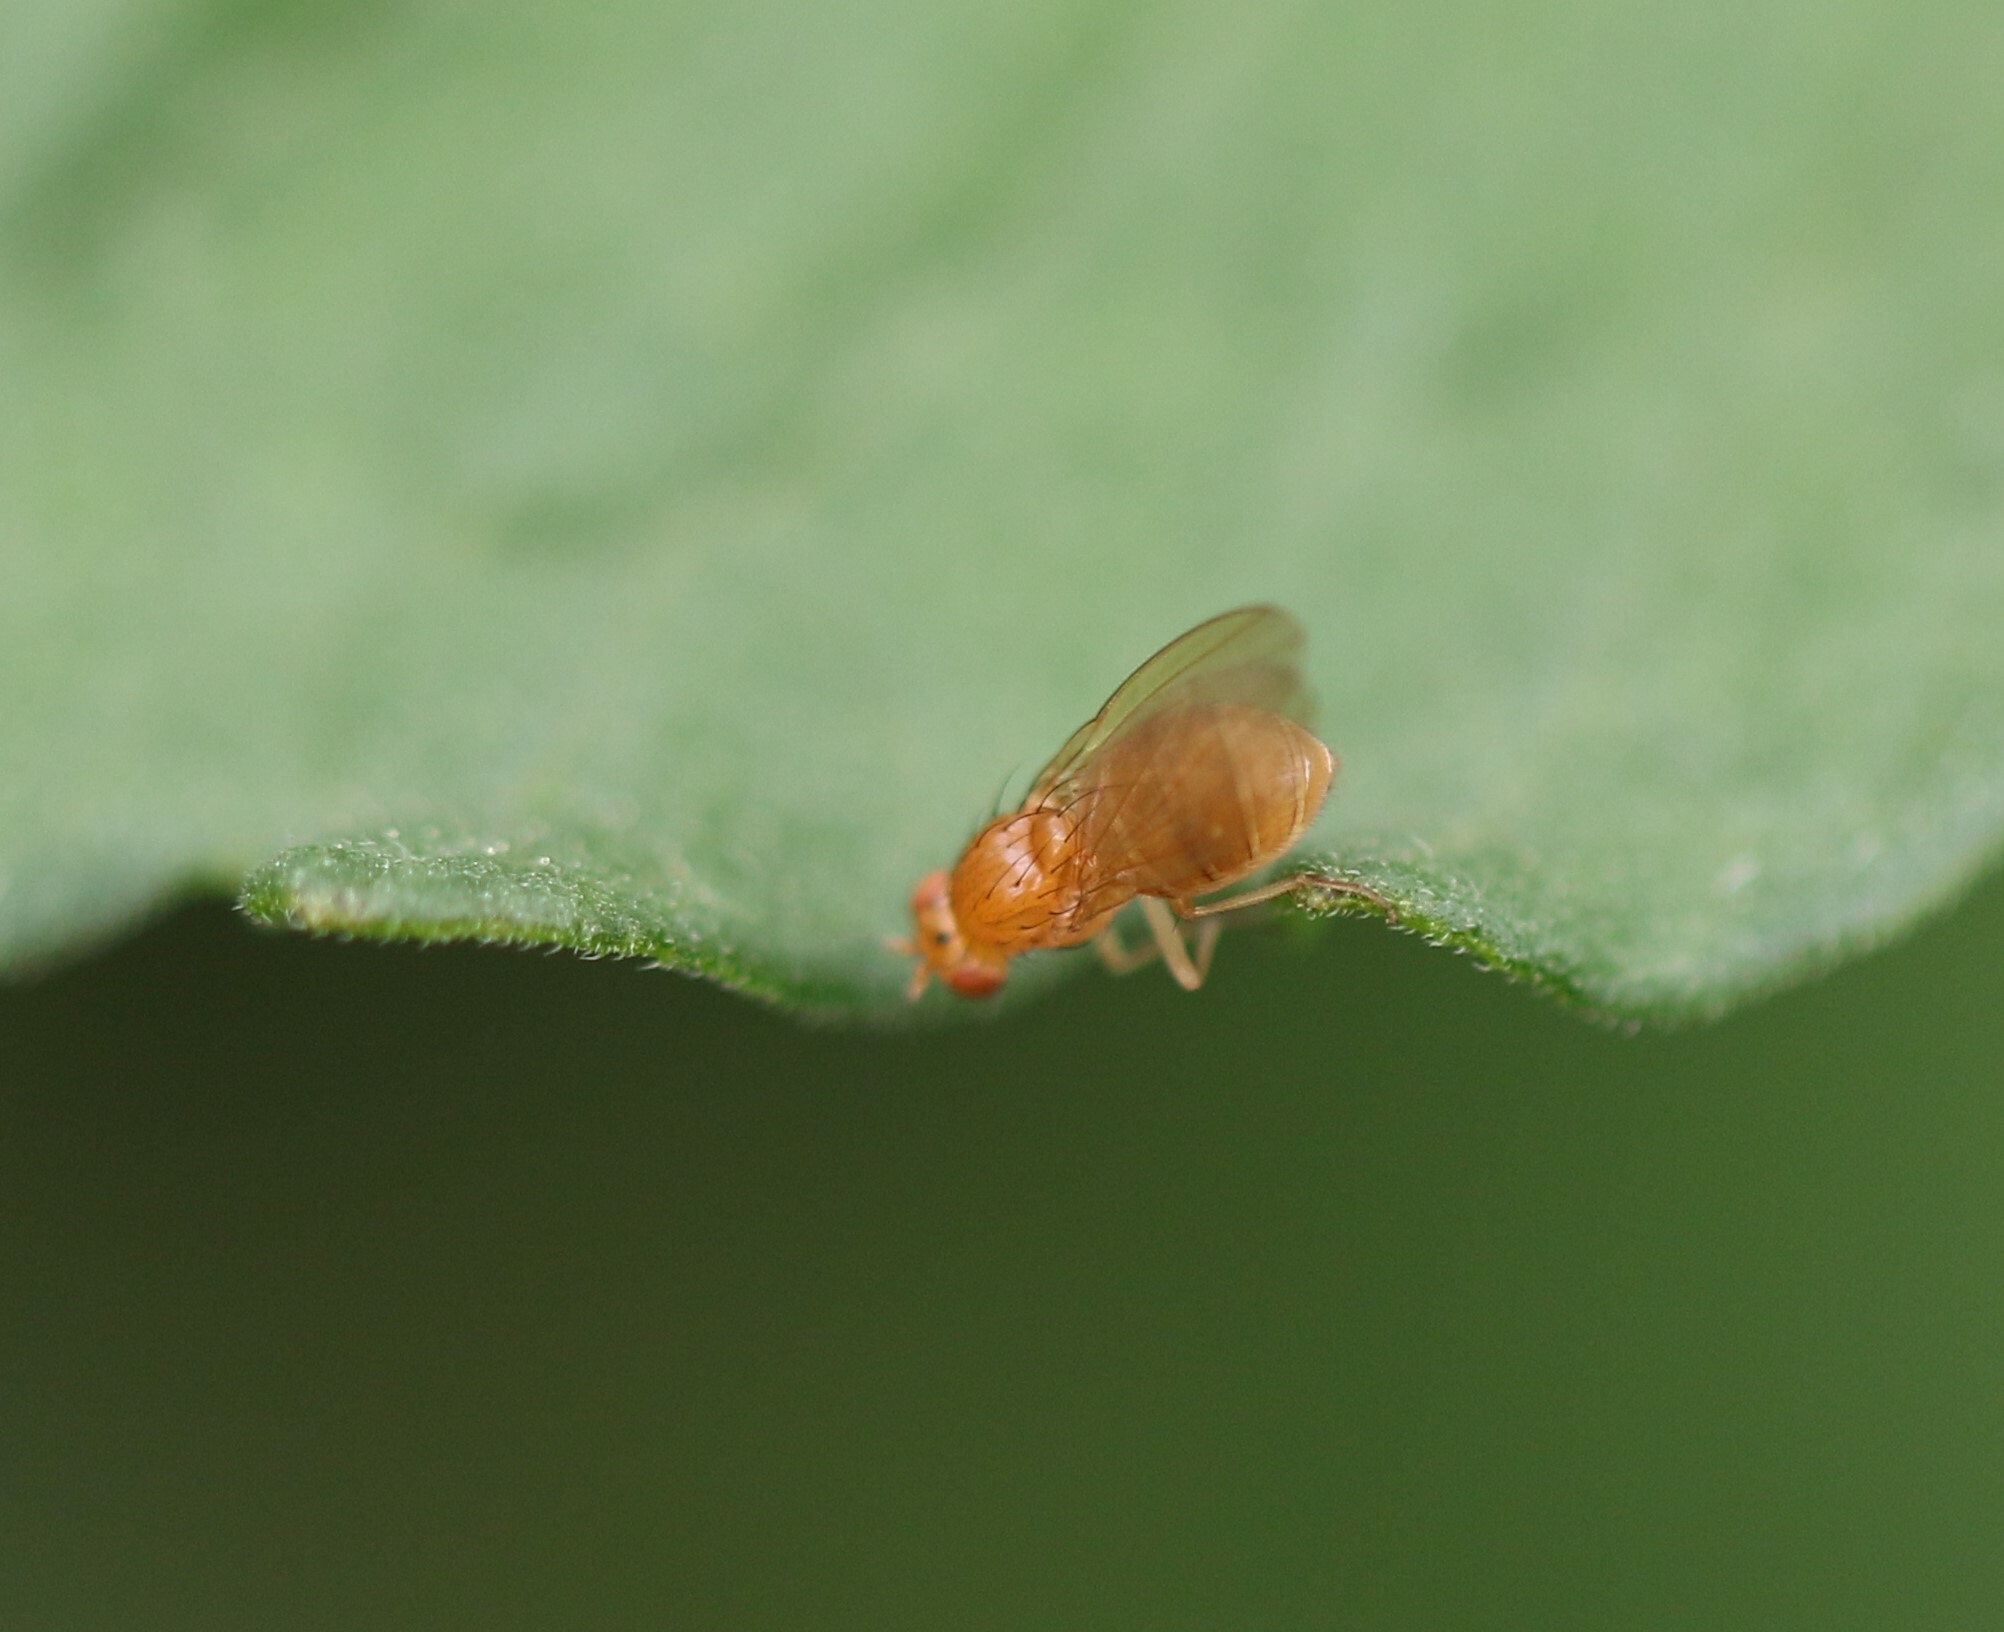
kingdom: Animalia
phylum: Arthropoda
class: Insecta
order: Diptera
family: Lauxaniidae
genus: Camptoprosopella
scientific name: Camptoprosopella slossonae
